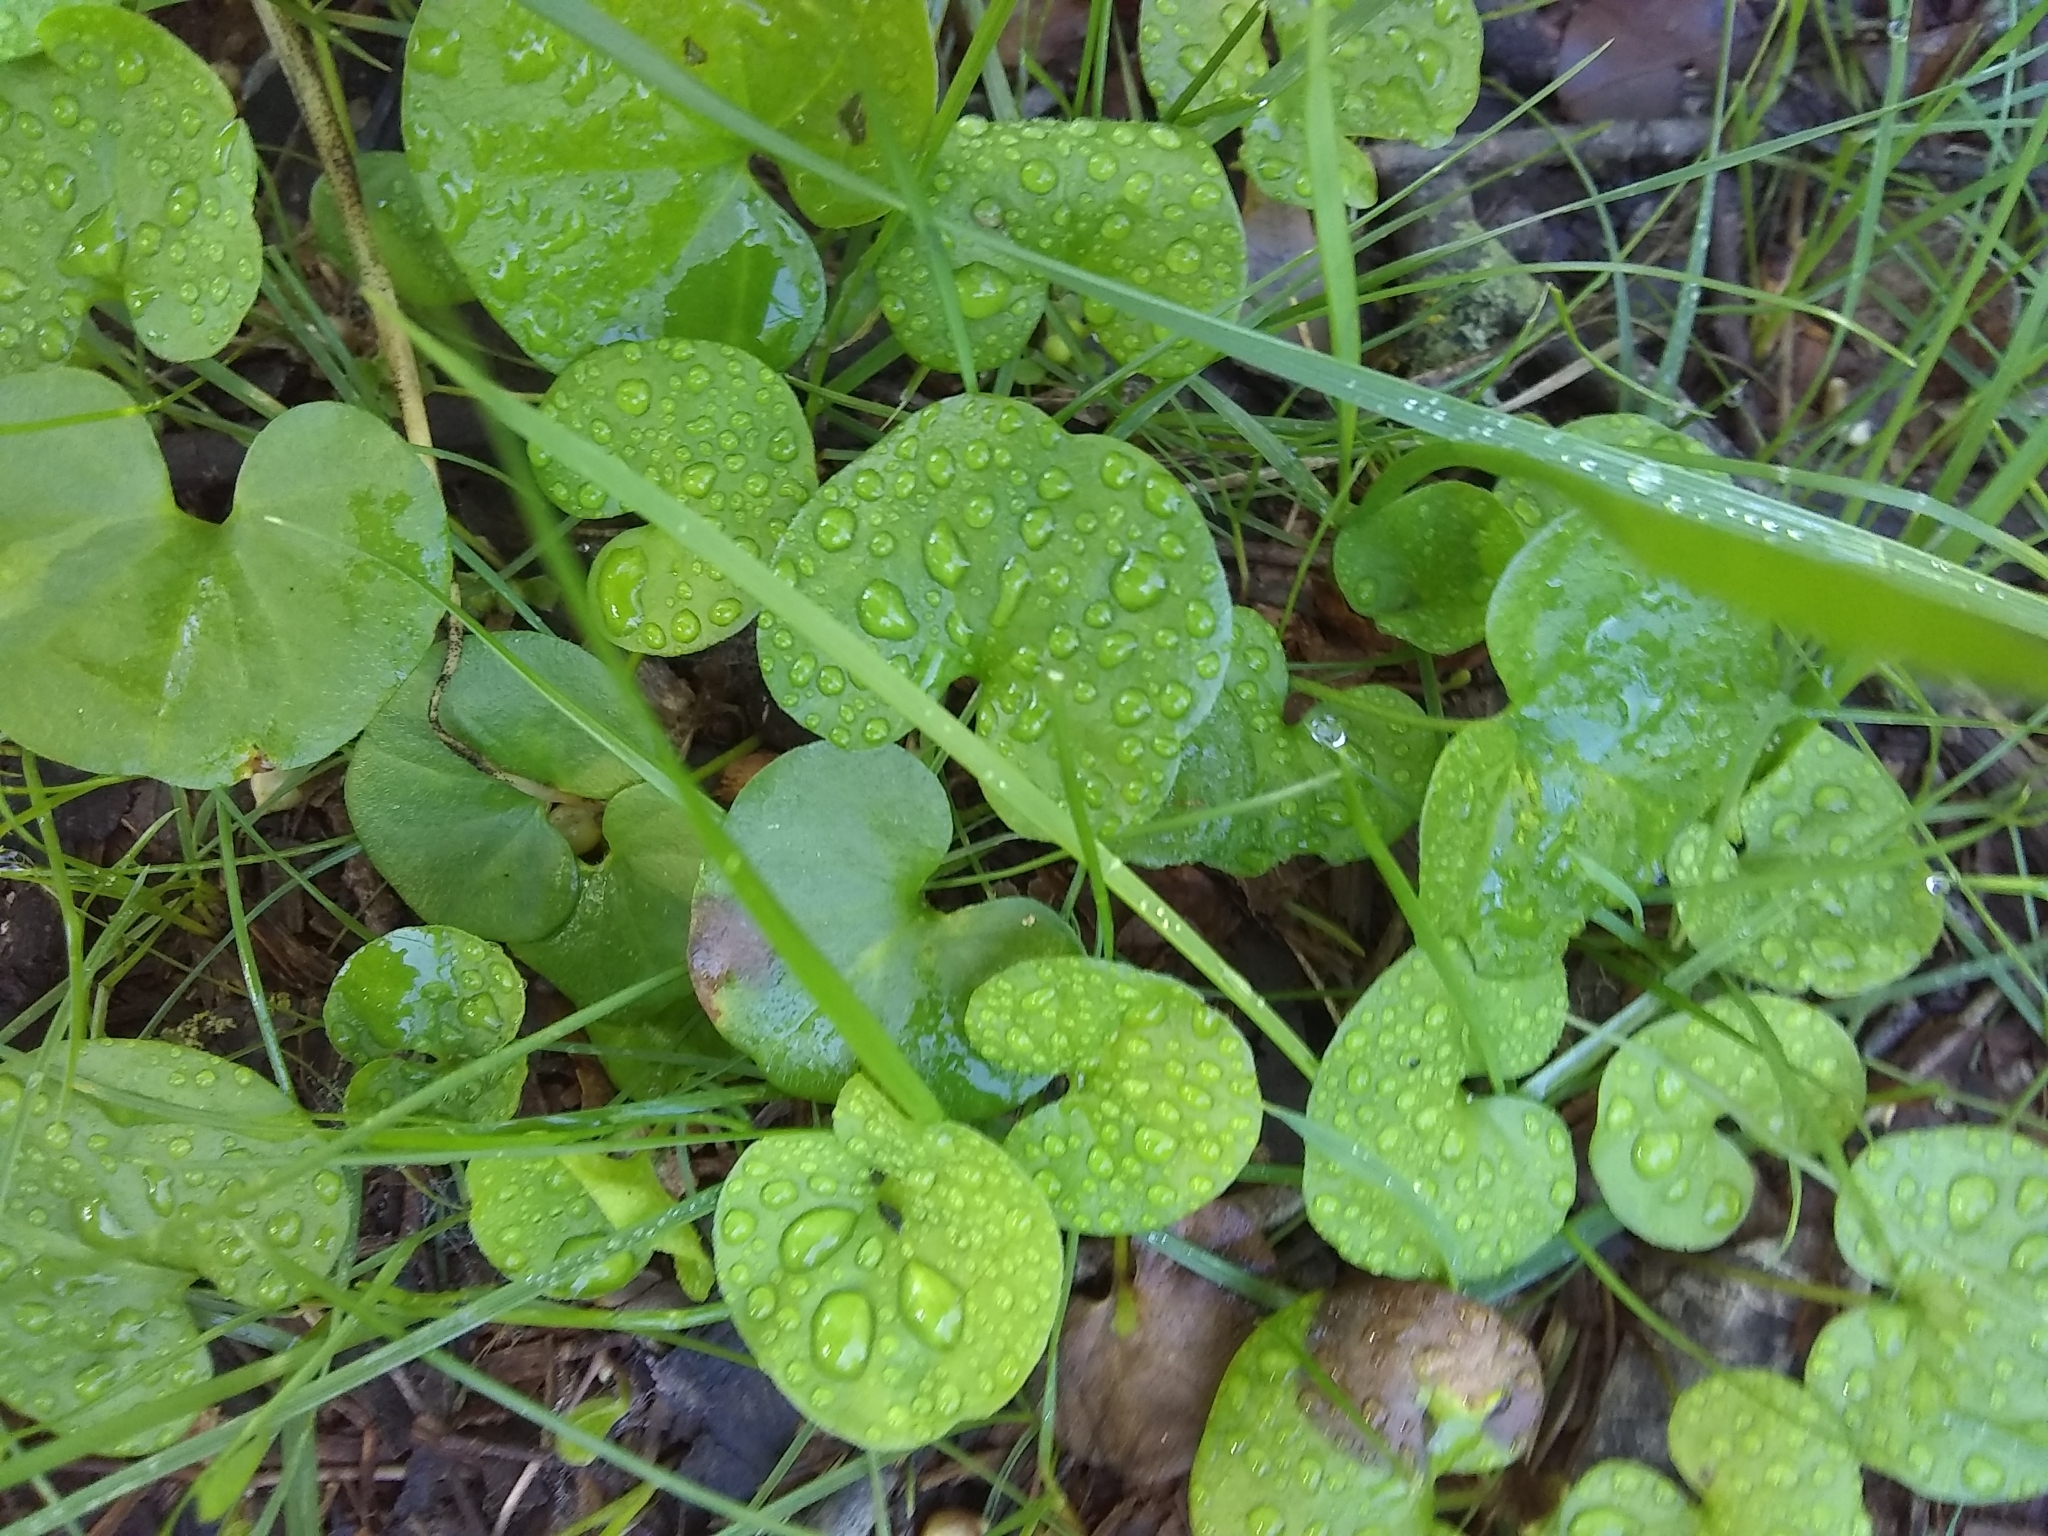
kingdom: Plantae
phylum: Tracheophyta
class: Magnoliopsida
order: Solanales
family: Convolvulaceae
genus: Dichondra
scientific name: Dichondra carolinensis
